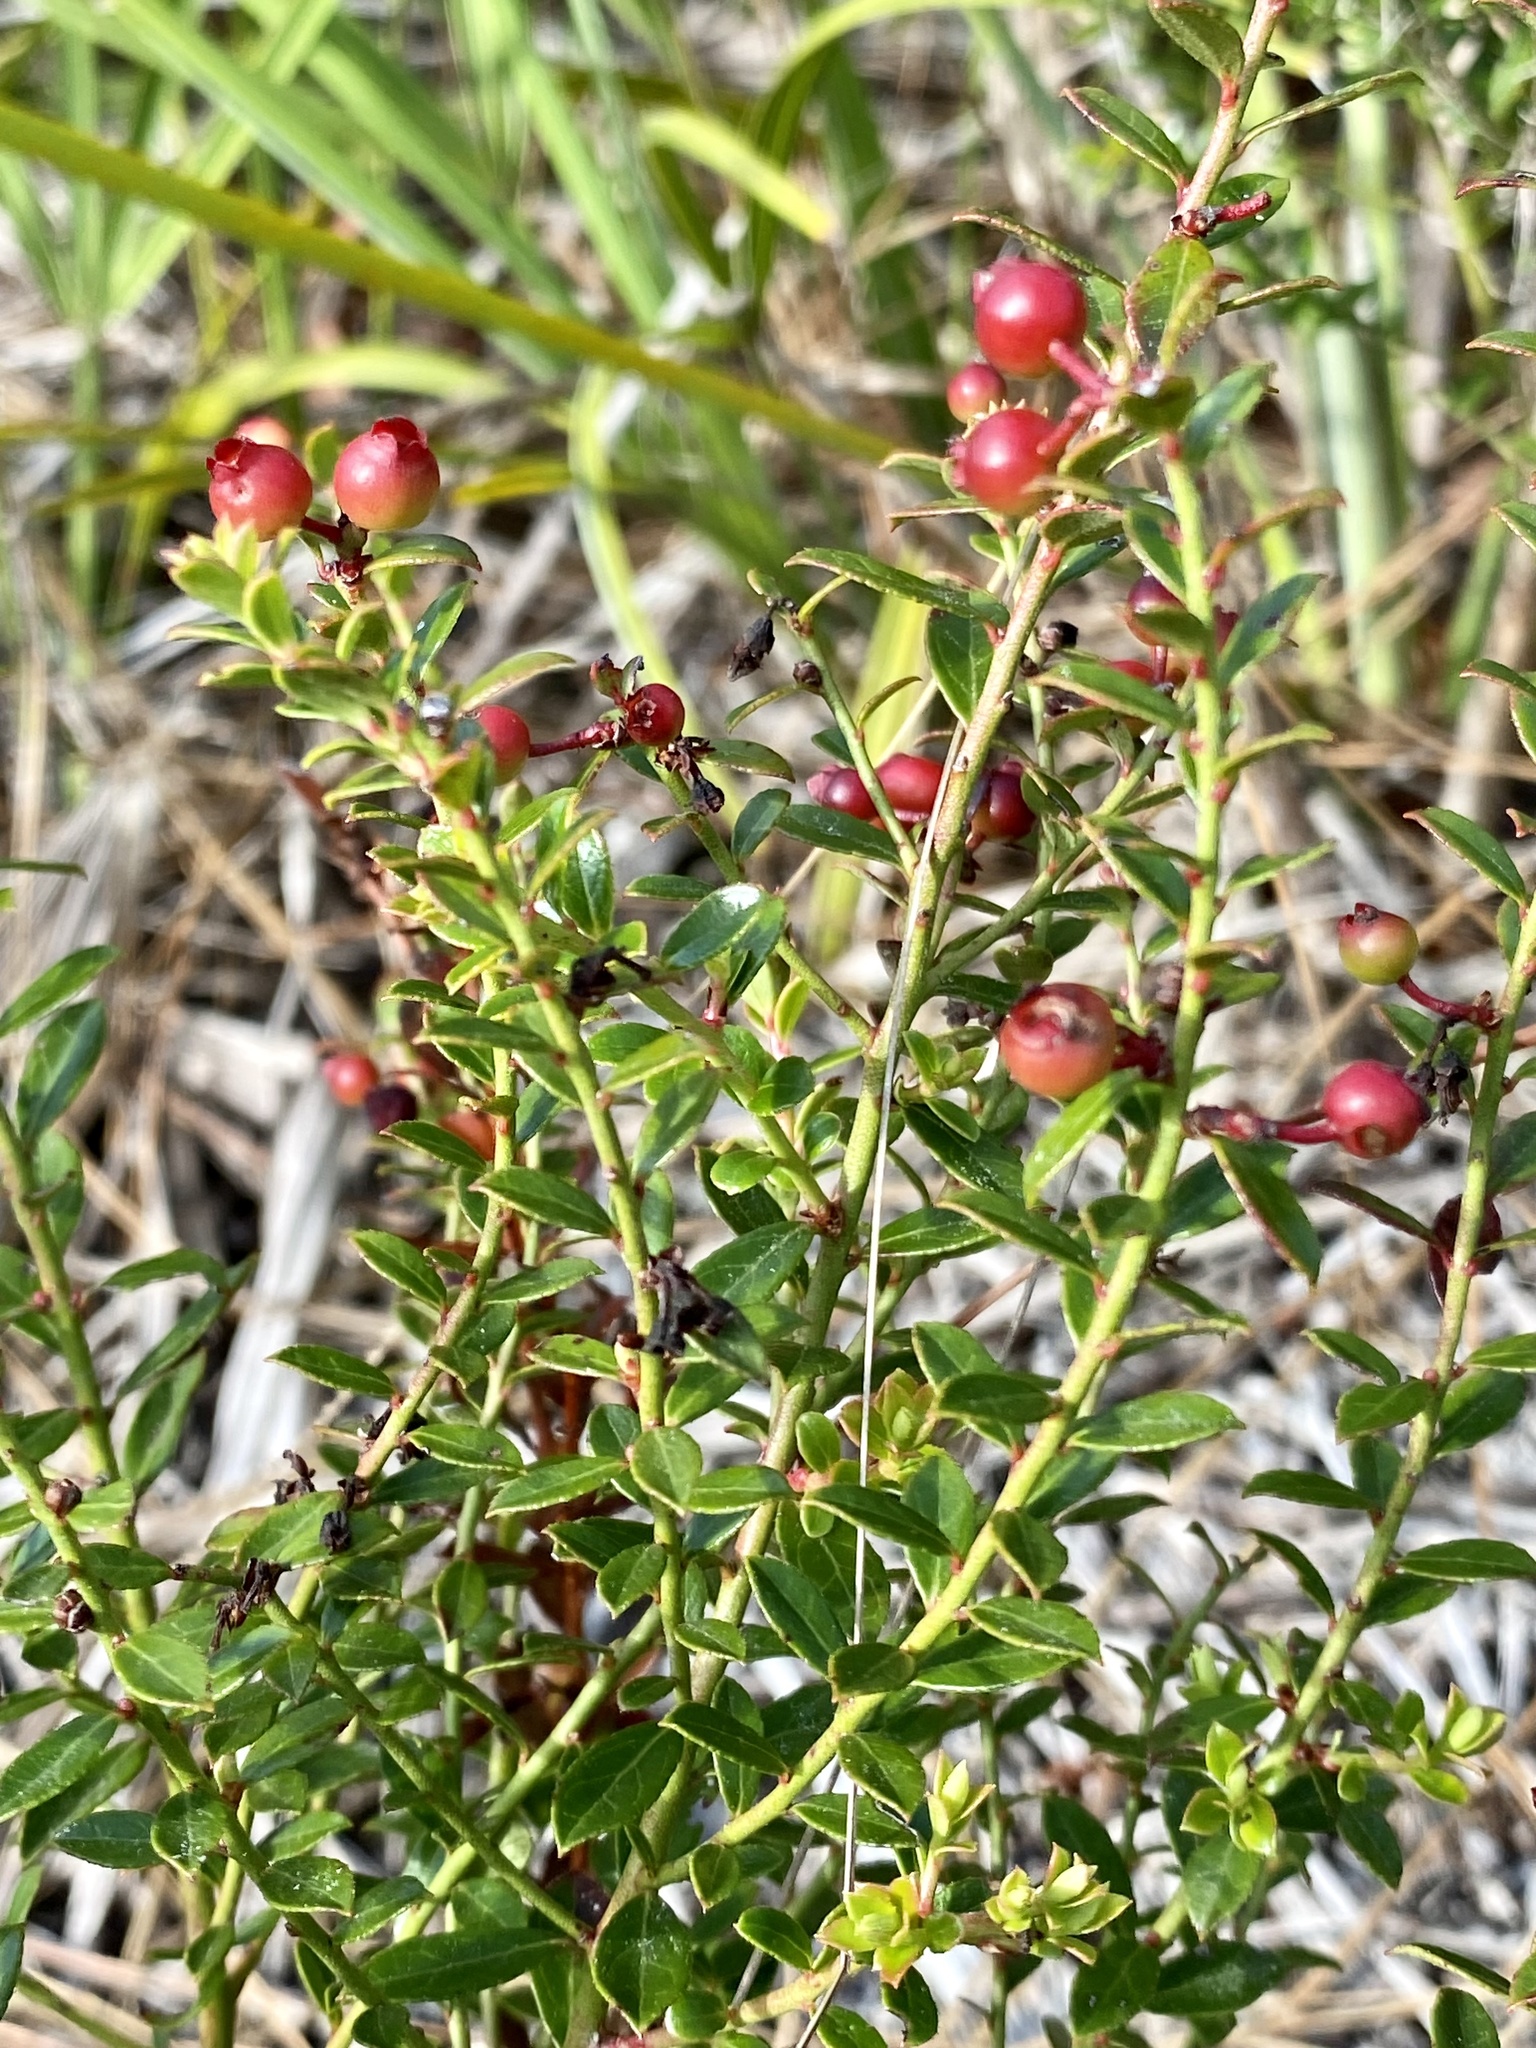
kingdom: Plantae
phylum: Tracheophyta
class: Magnoliopsida
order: Ericales
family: Ericaceae
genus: Vaccinium
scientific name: Vaccinium myrsinites
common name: Evergreen blueberry
